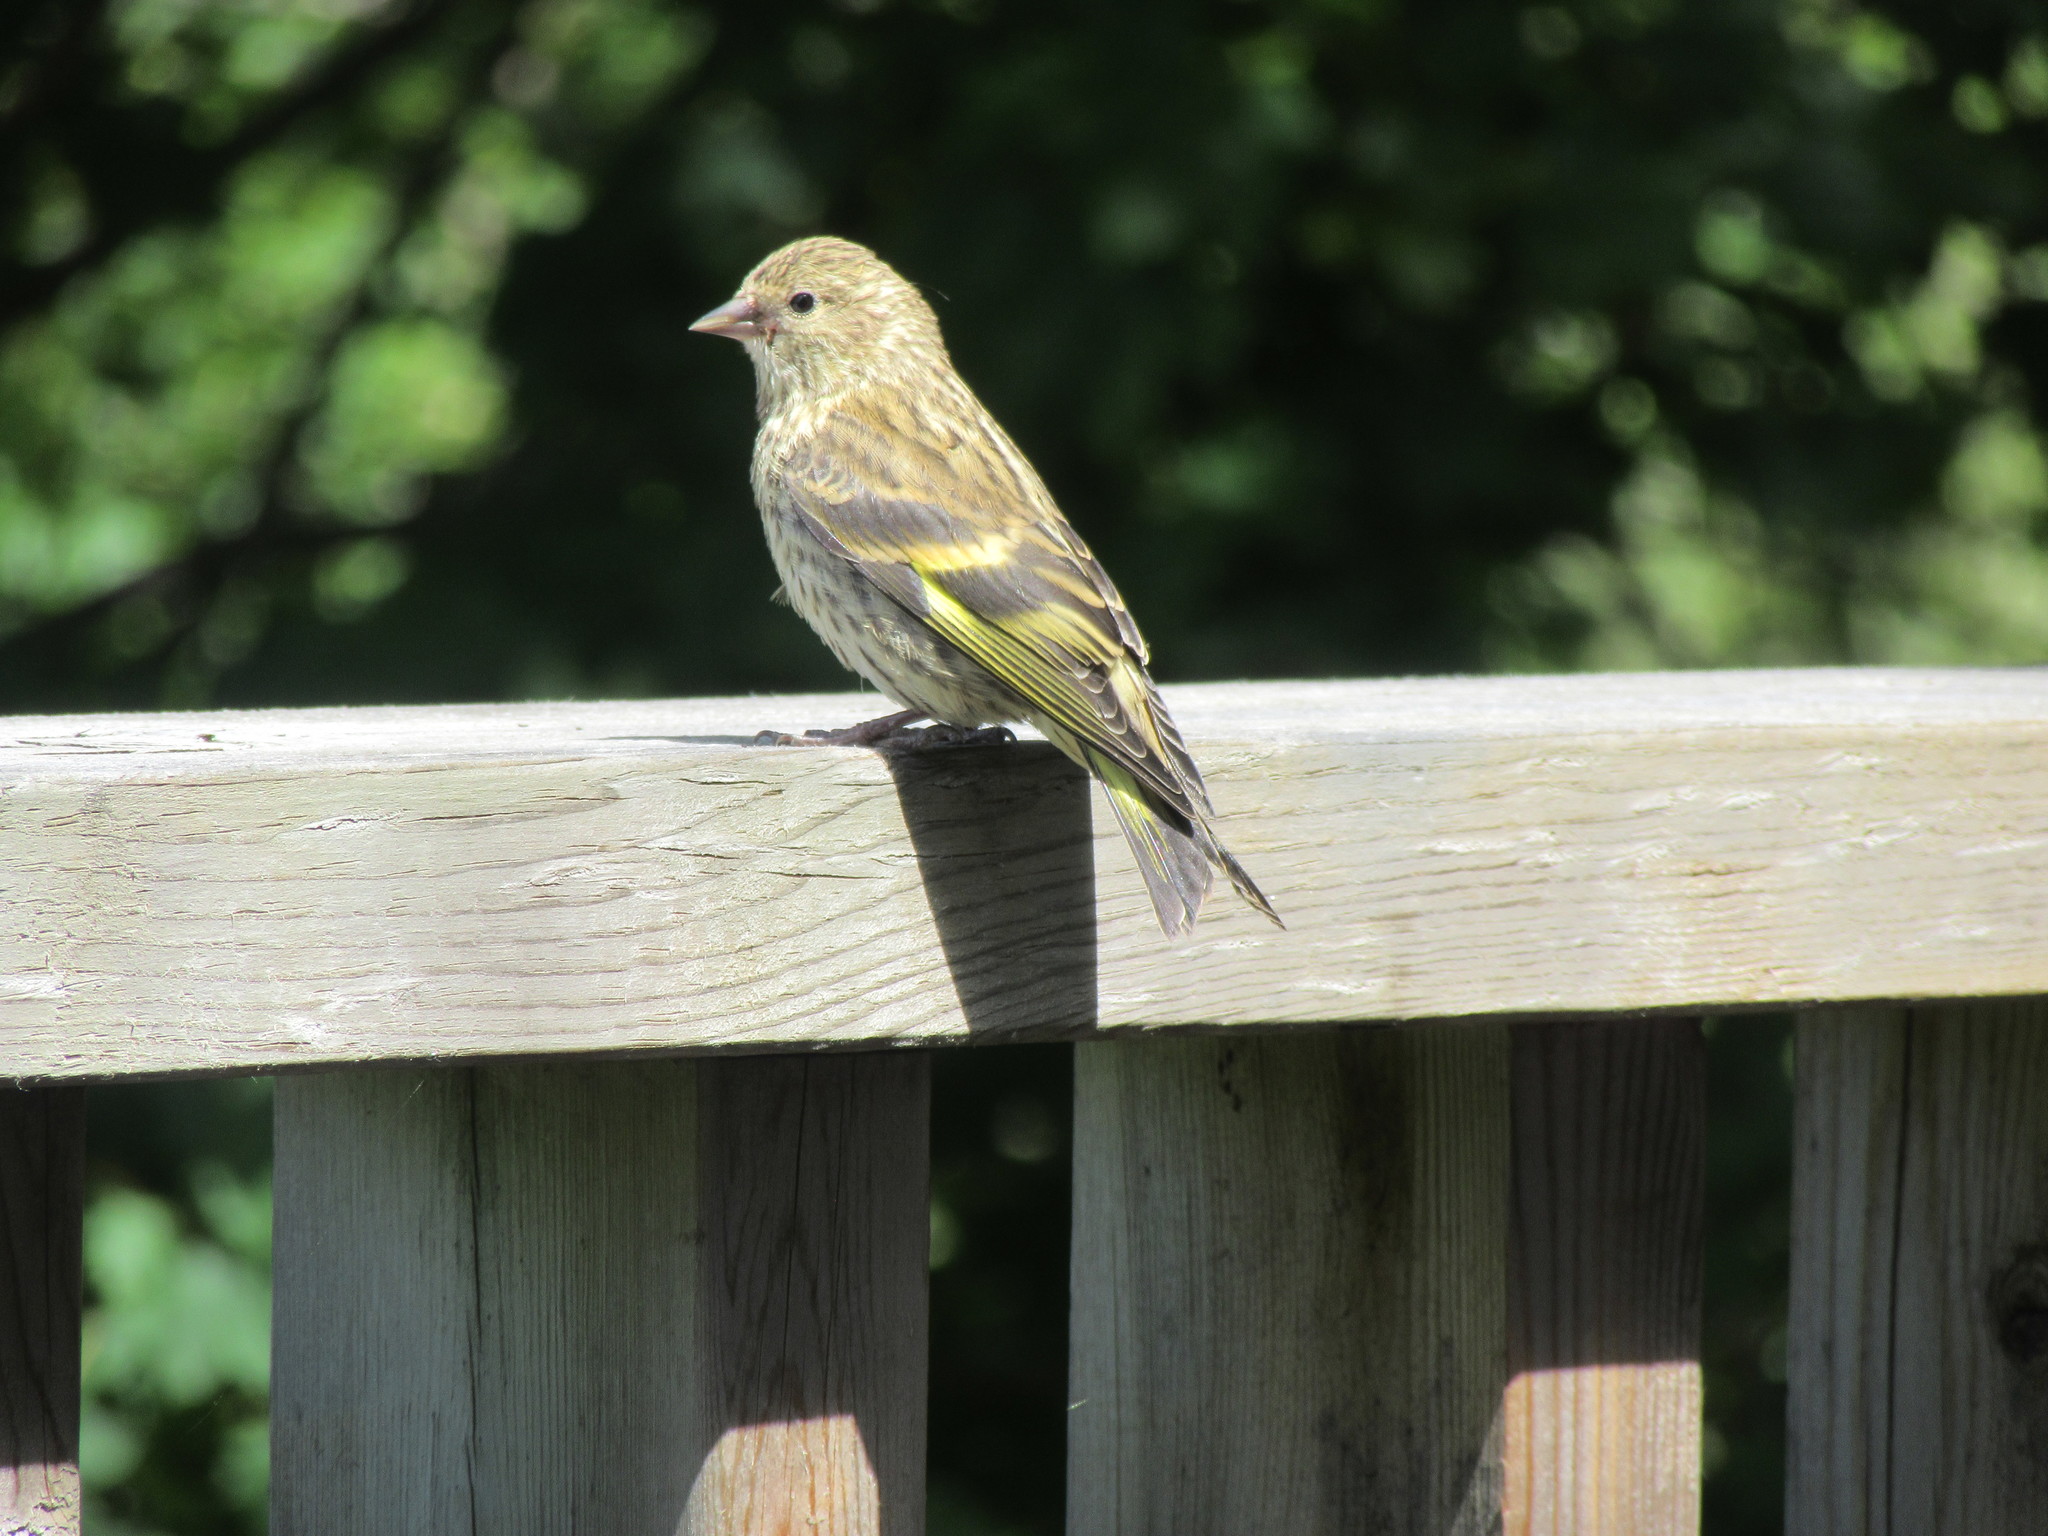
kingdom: Animalia
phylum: Chordata
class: Aves
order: Passeriformes
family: Fringillidae
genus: Spinus
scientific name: Spinus pinus
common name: Pine siskin
